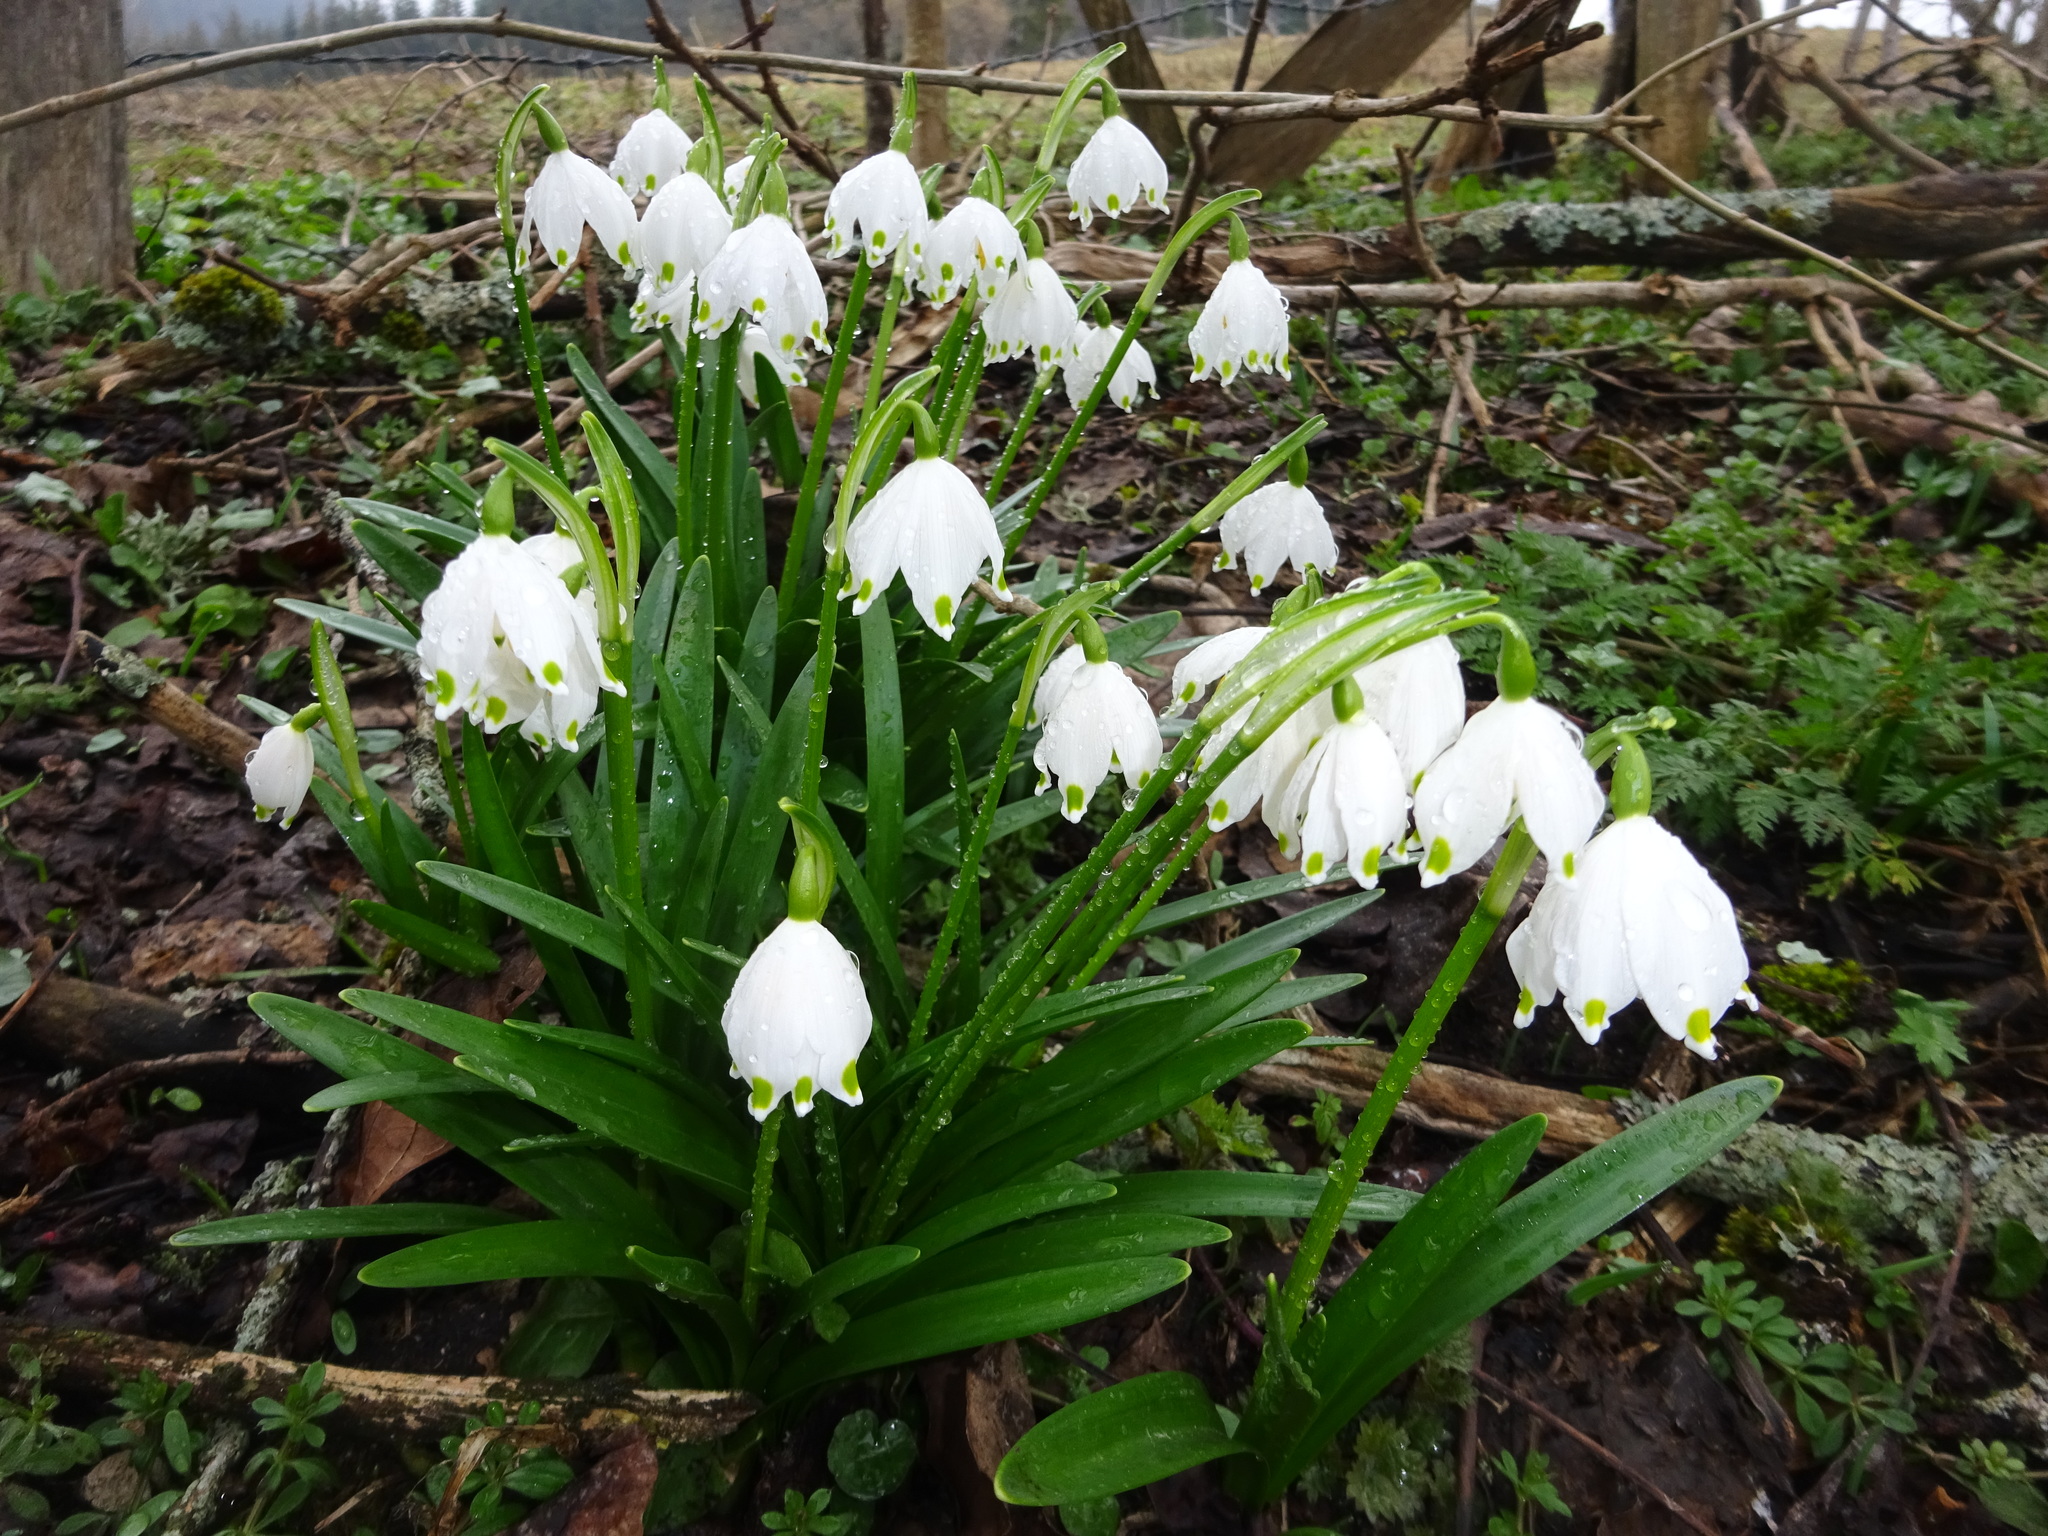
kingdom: Plantae
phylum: Tracheophyta
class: Liliopsida
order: Asparagales
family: Amaryllidaceae
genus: Leucojum
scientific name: Leucojum vernum
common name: Spring snowflake
